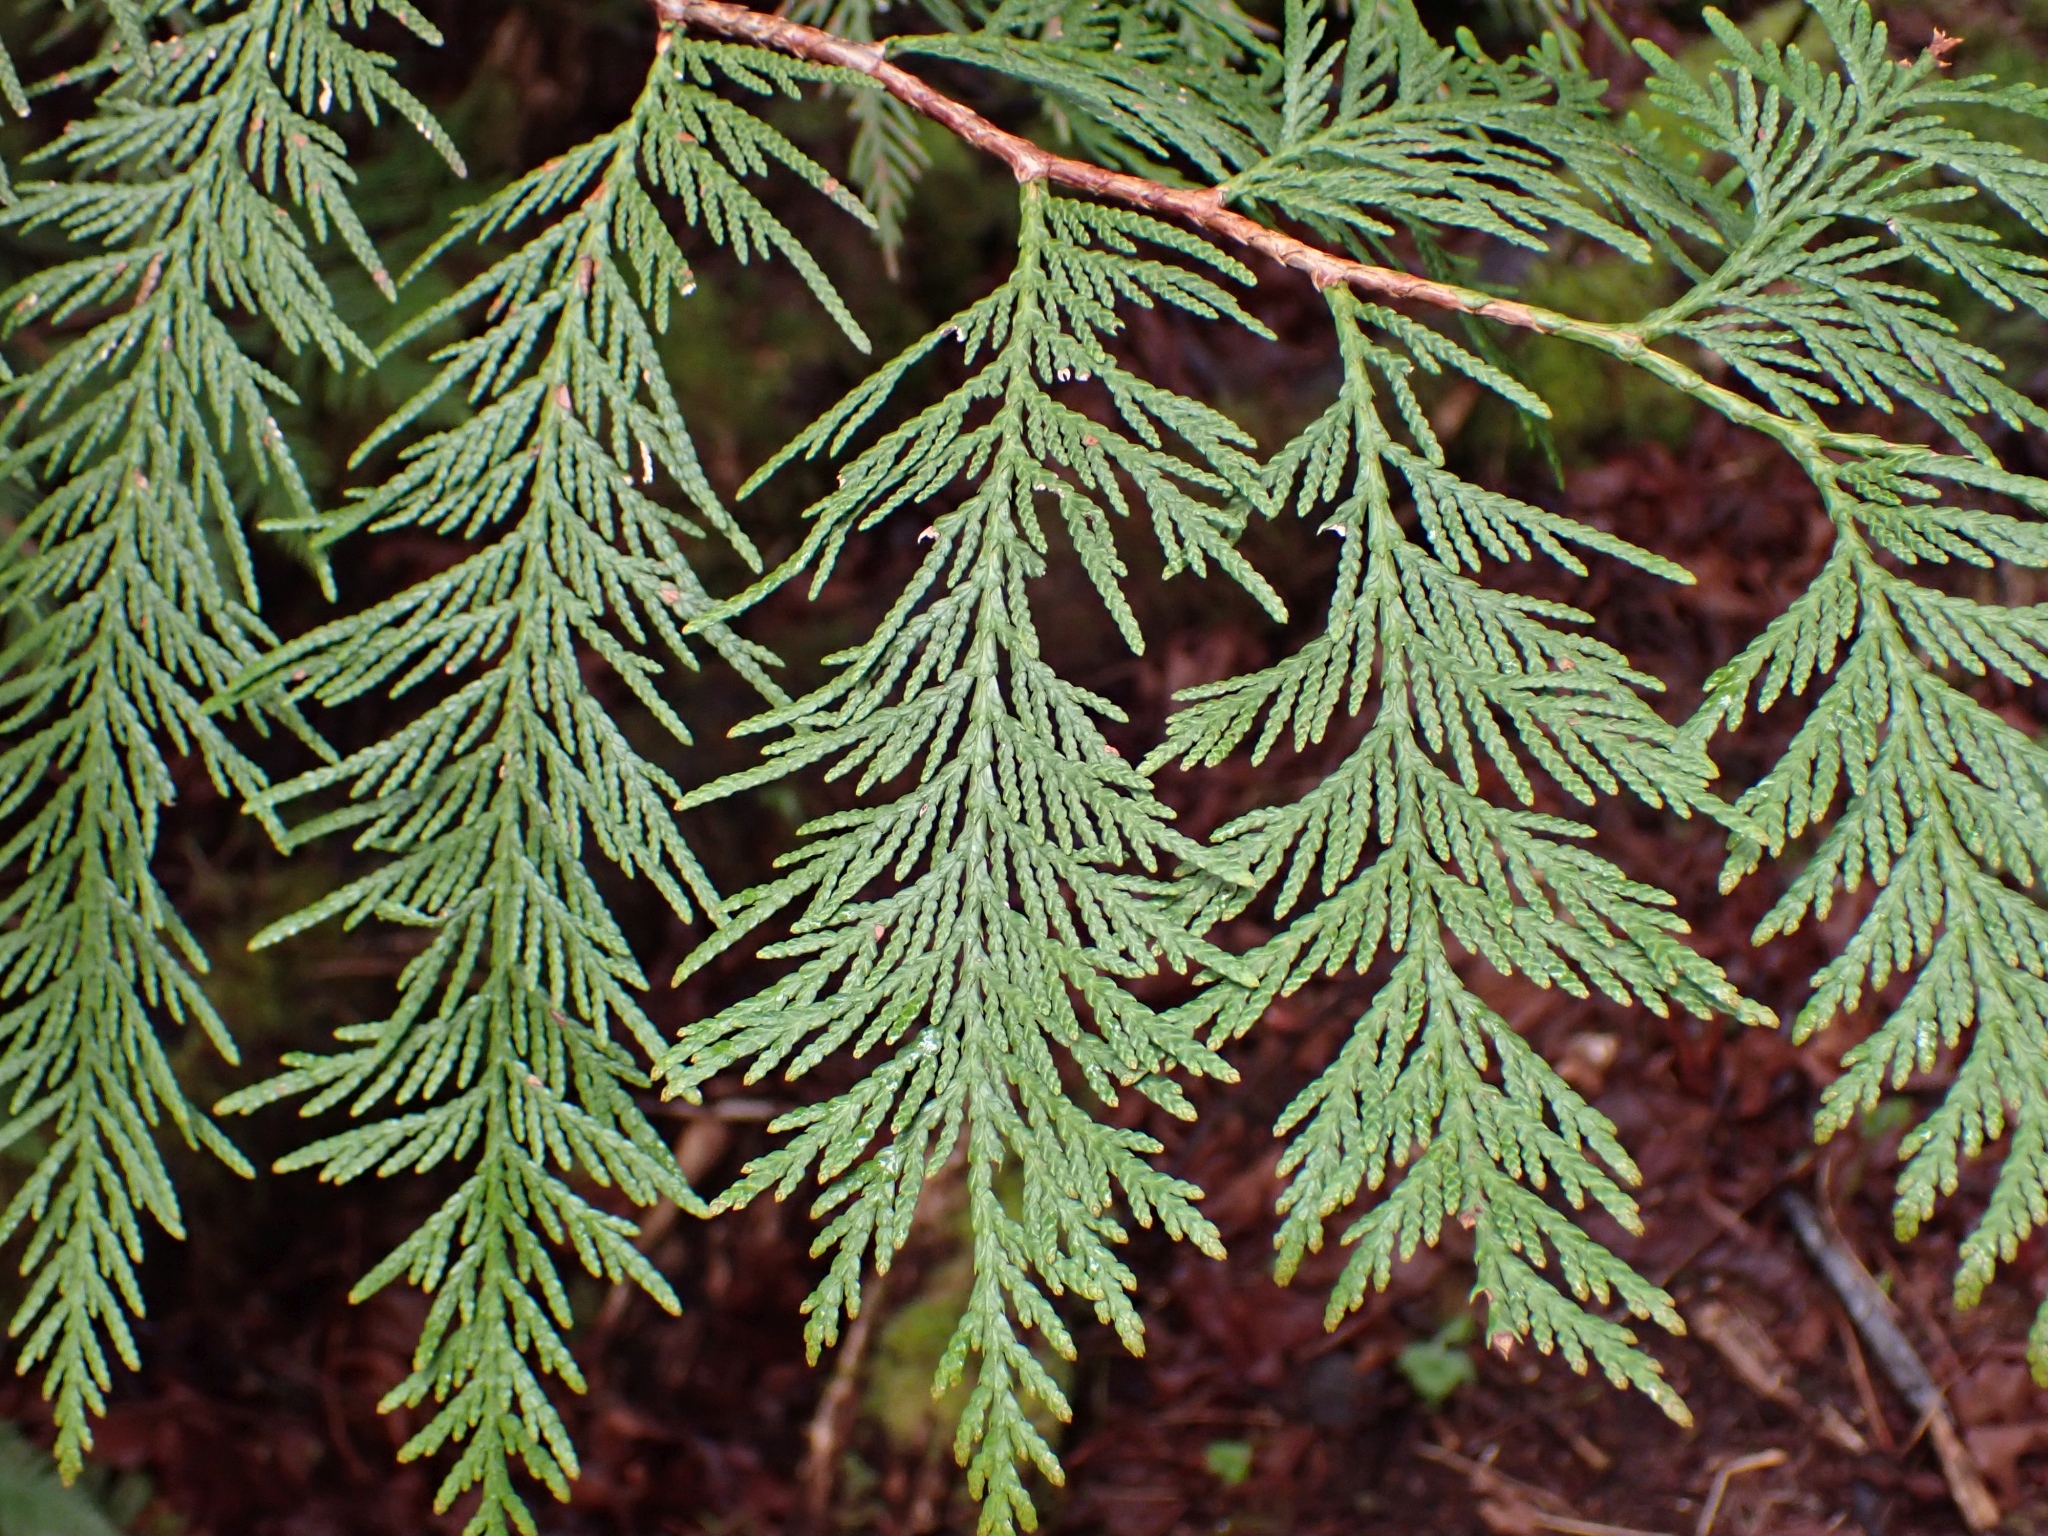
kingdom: Plantae
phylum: Tracheophyta
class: Pinopsida
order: Pinales
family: Cupressaceae
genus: Thuja
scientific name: Thuja plicata
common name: Western red-cedar
